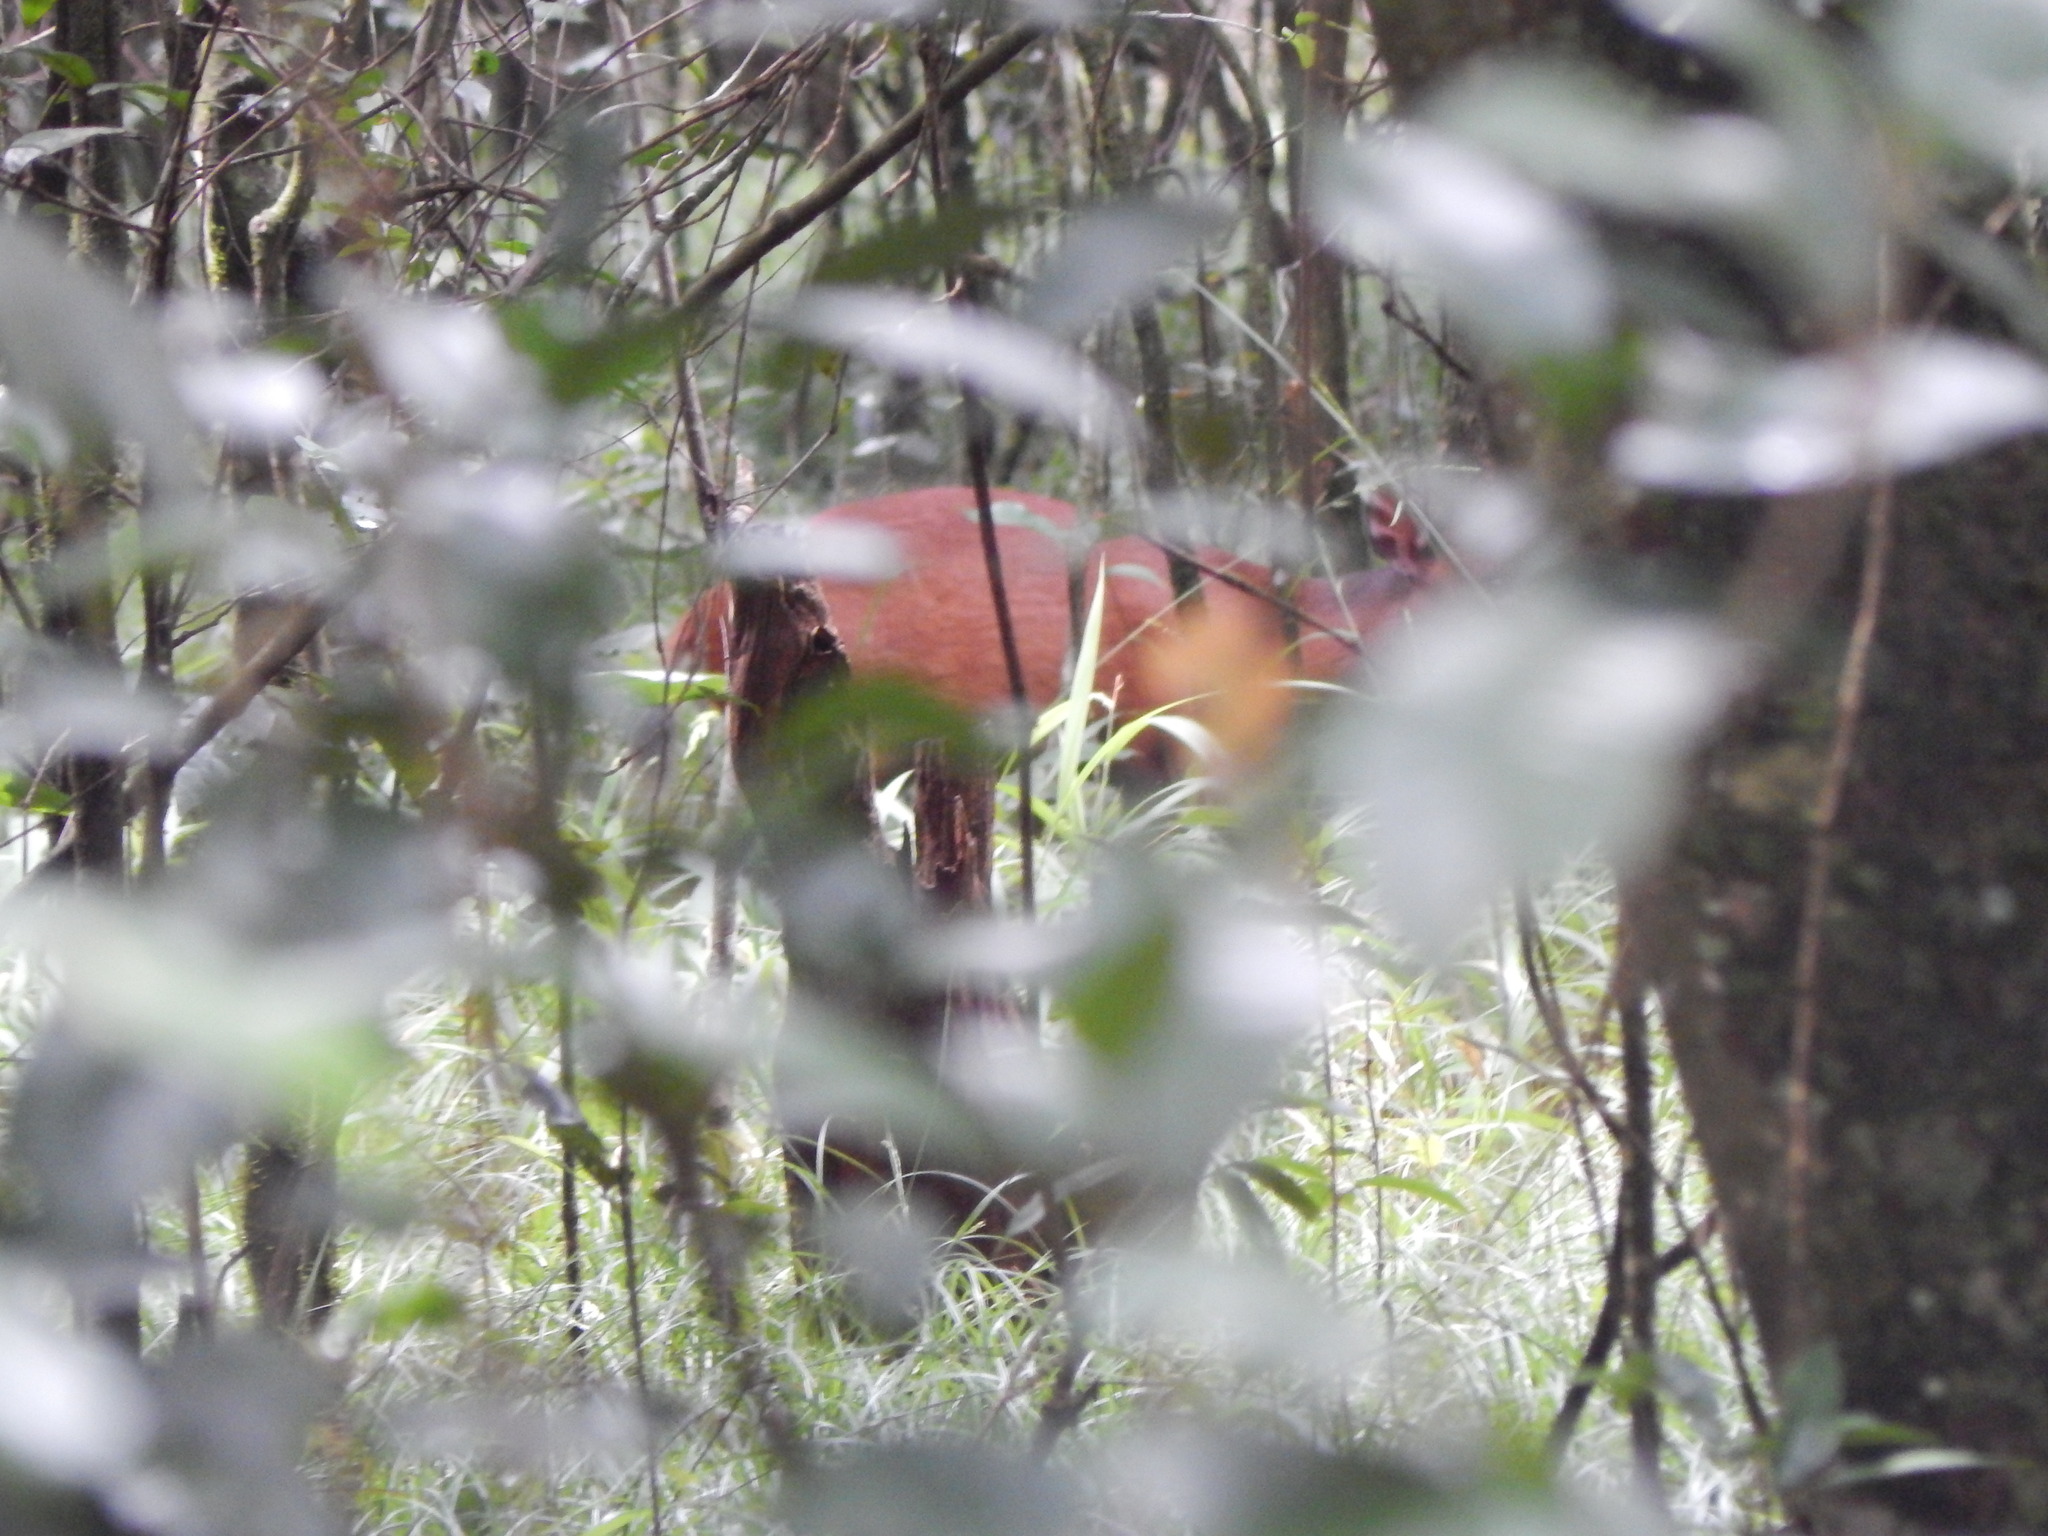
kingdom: Animalia
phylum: Chordata
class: Mammalia
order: Artiodactyla
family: Bovidae
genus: Cephalophus
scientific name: Cephalophus natalensis
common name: Red duiker
